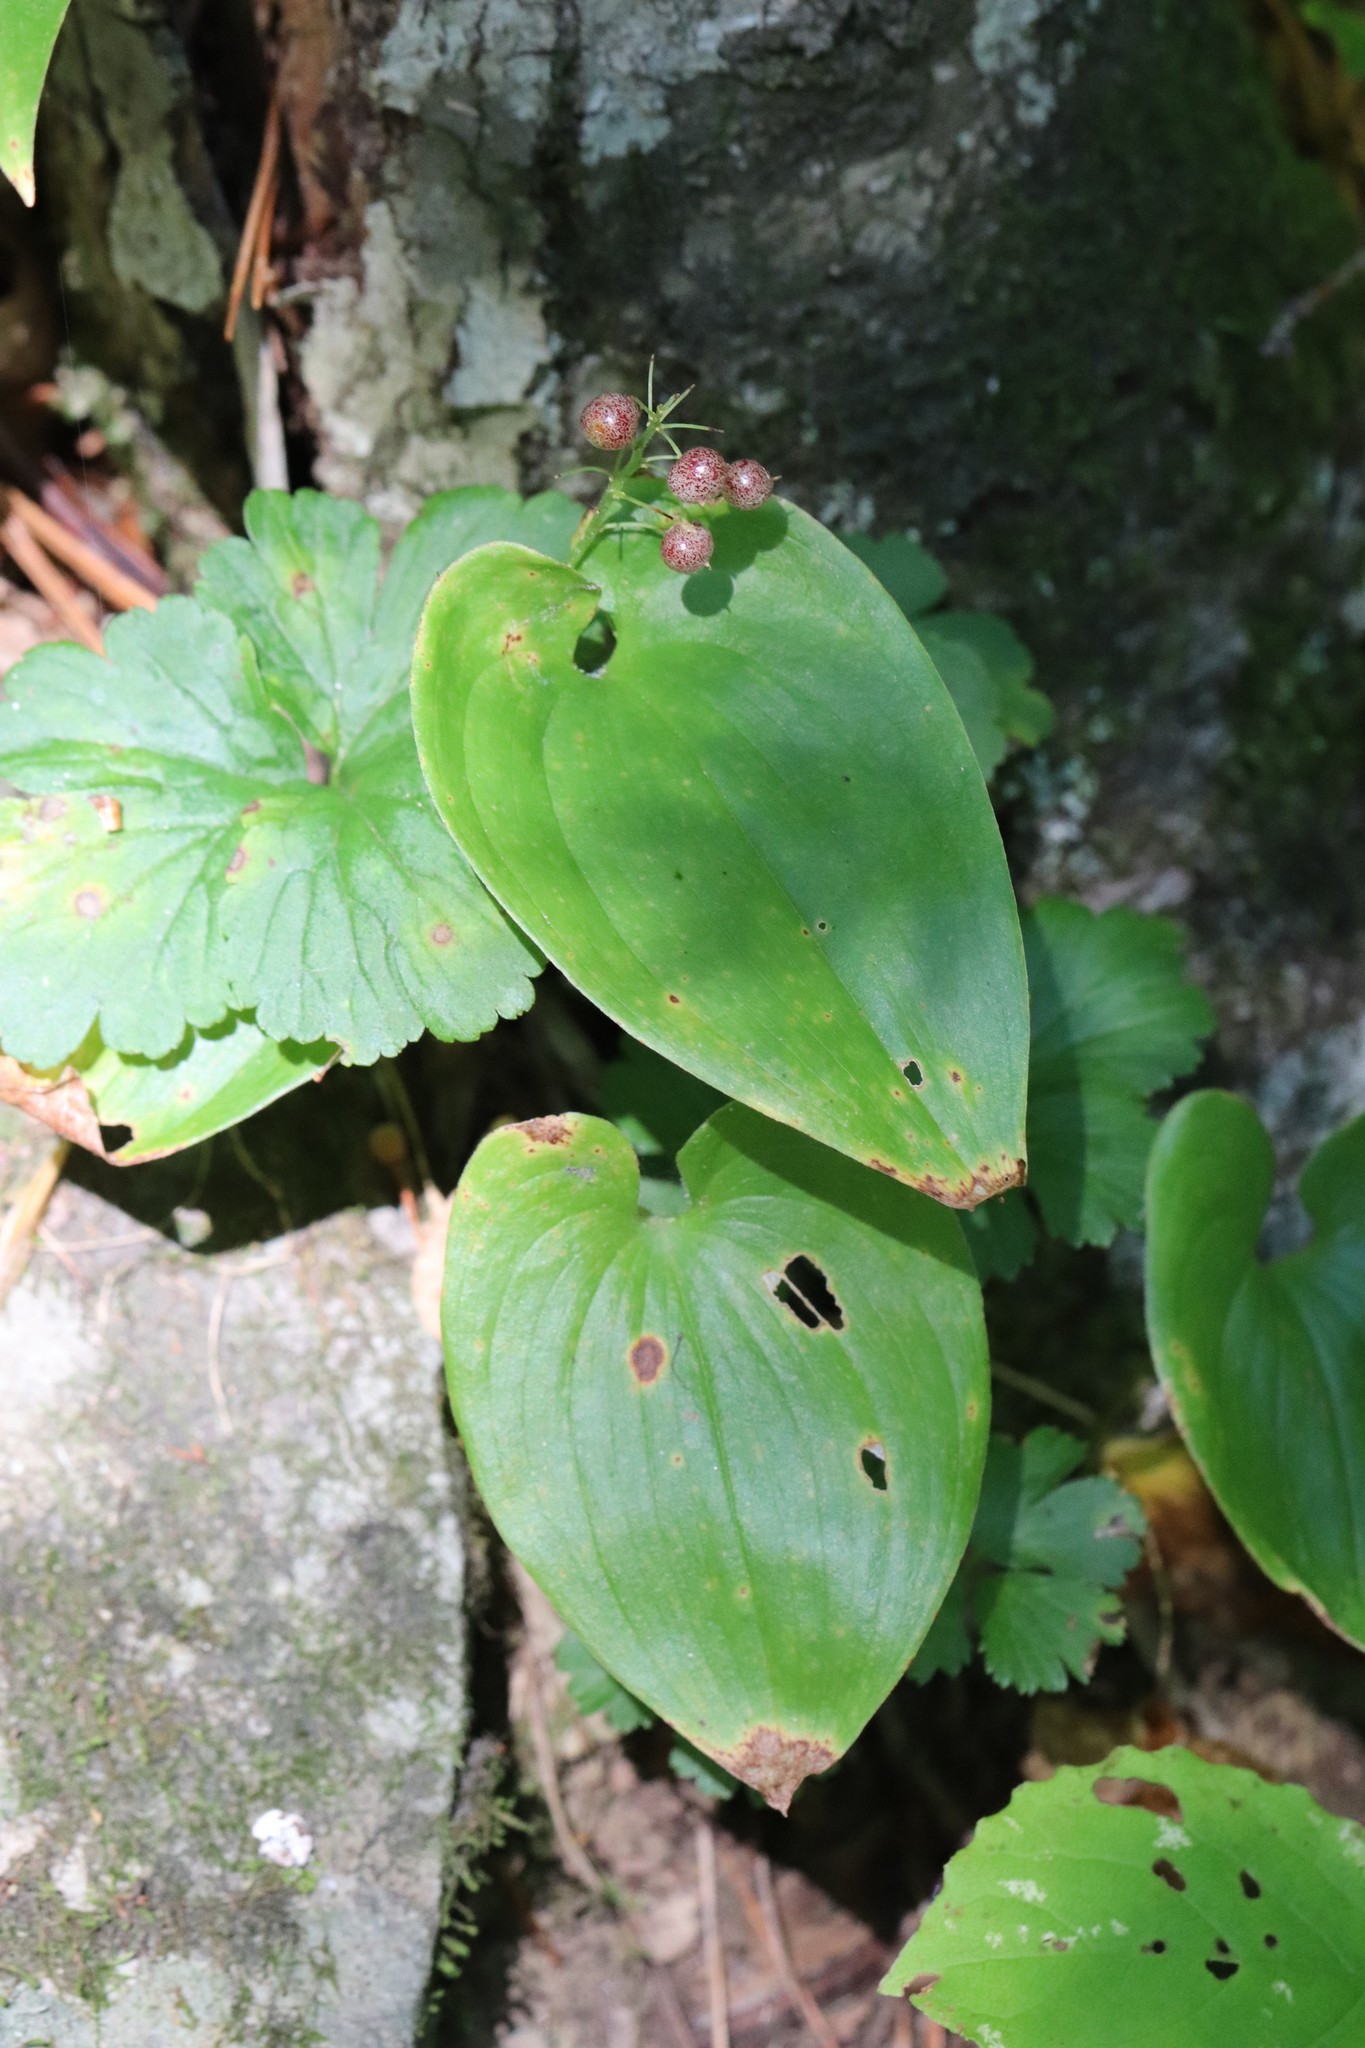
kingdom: Plantae
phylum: Tracheophyta
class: Liliopsida
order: Asparagales
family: Asparagaceae
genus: Maianthemum
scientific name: Maianthemum bifolium
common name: May lily
